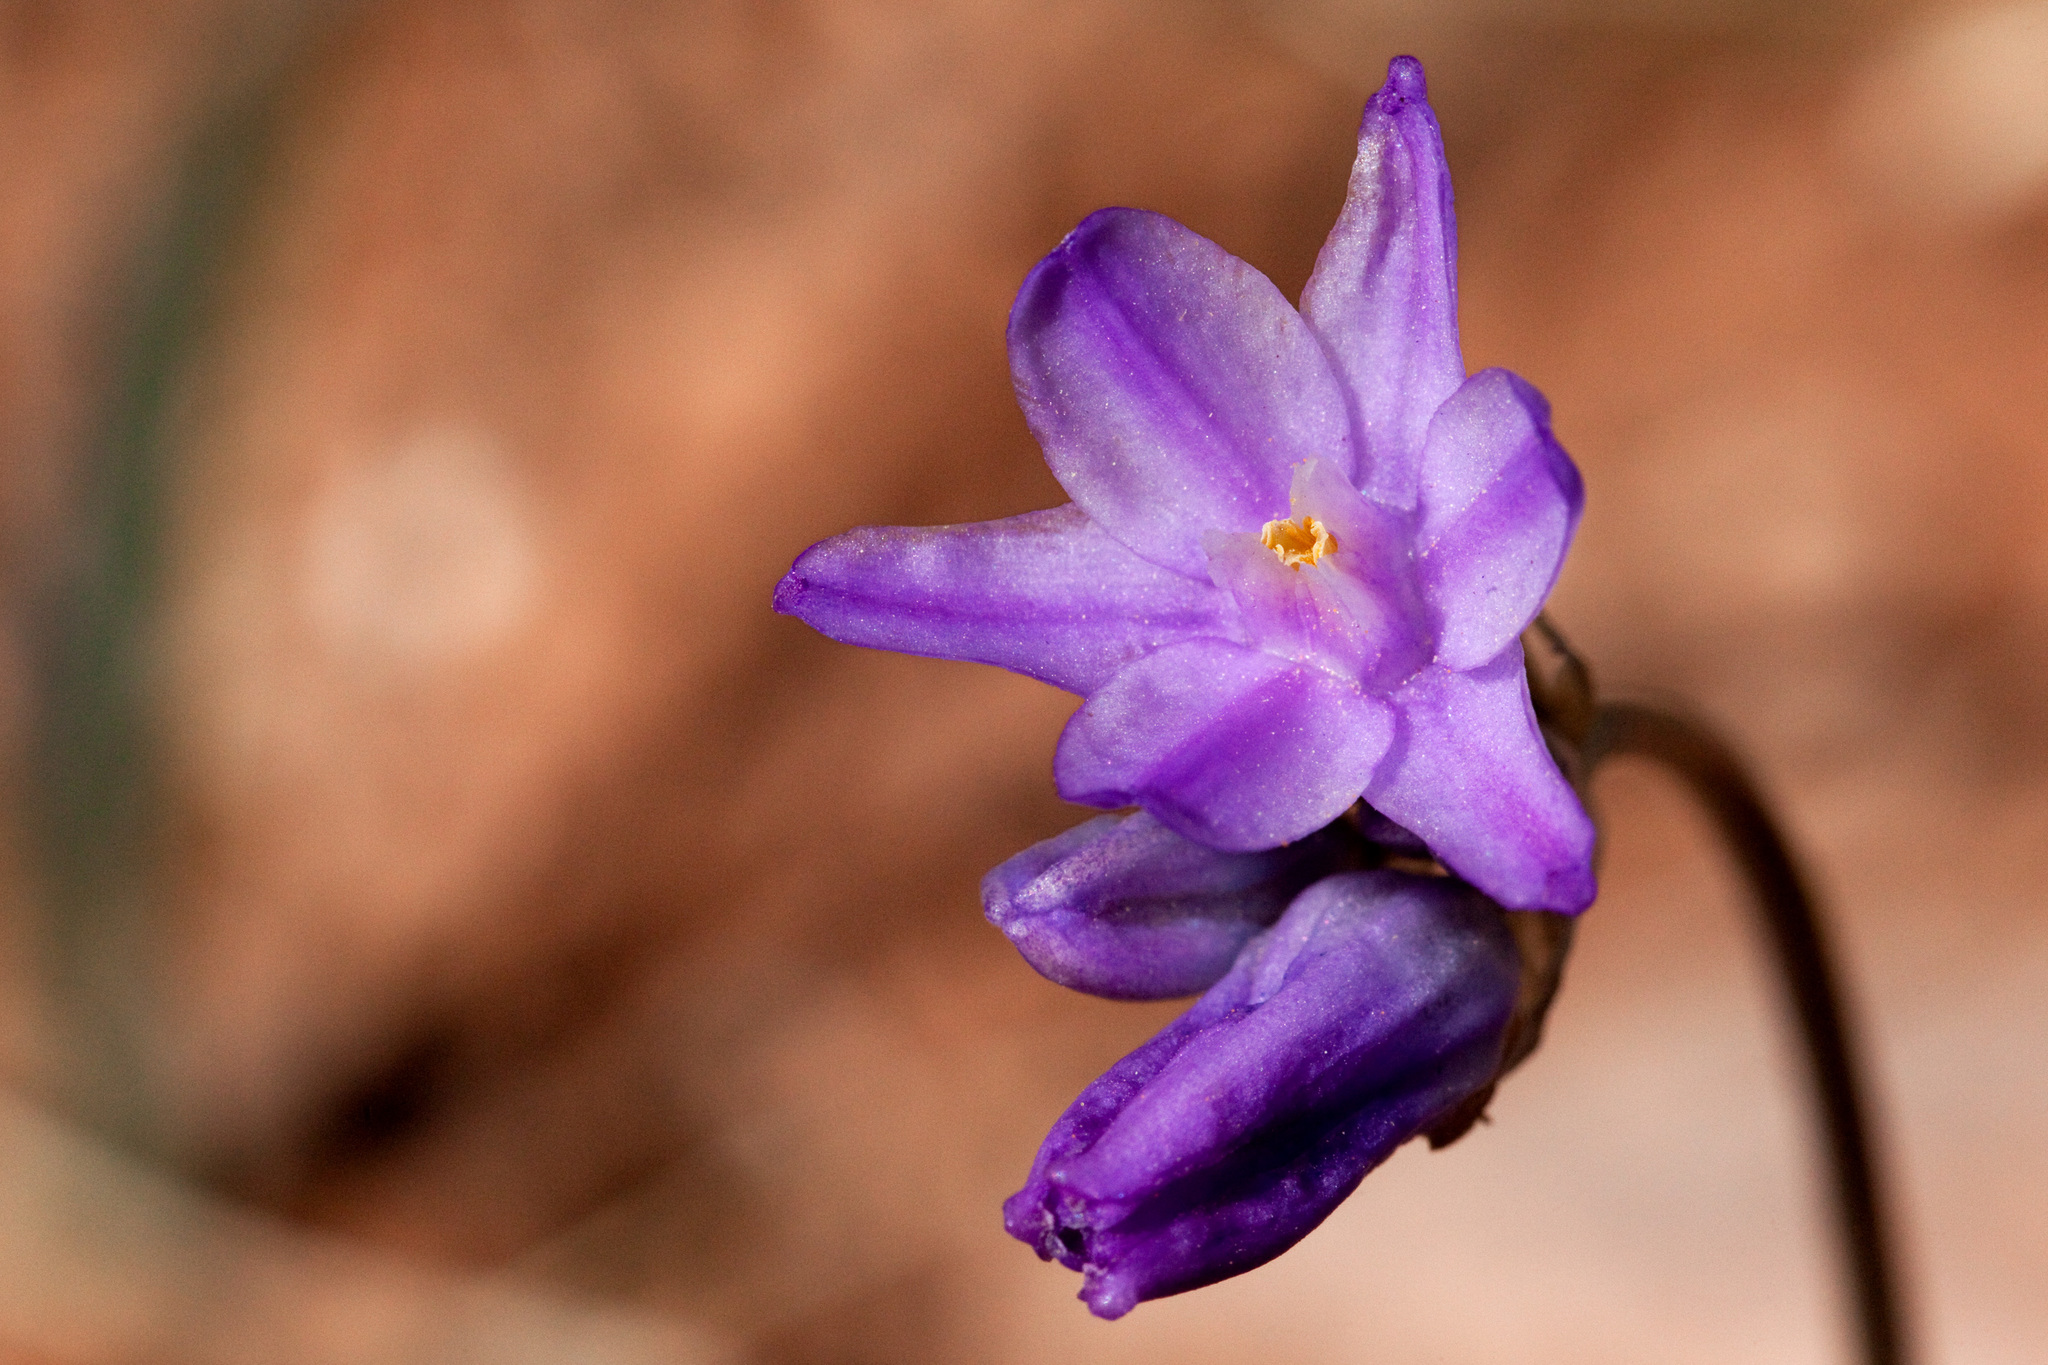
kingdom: Plantae
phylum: Tracheophyta
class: Liliopsida
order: Asparagales
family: Asparagaceae
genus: Dipterostemon
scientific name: Dipterostemon capitatus
